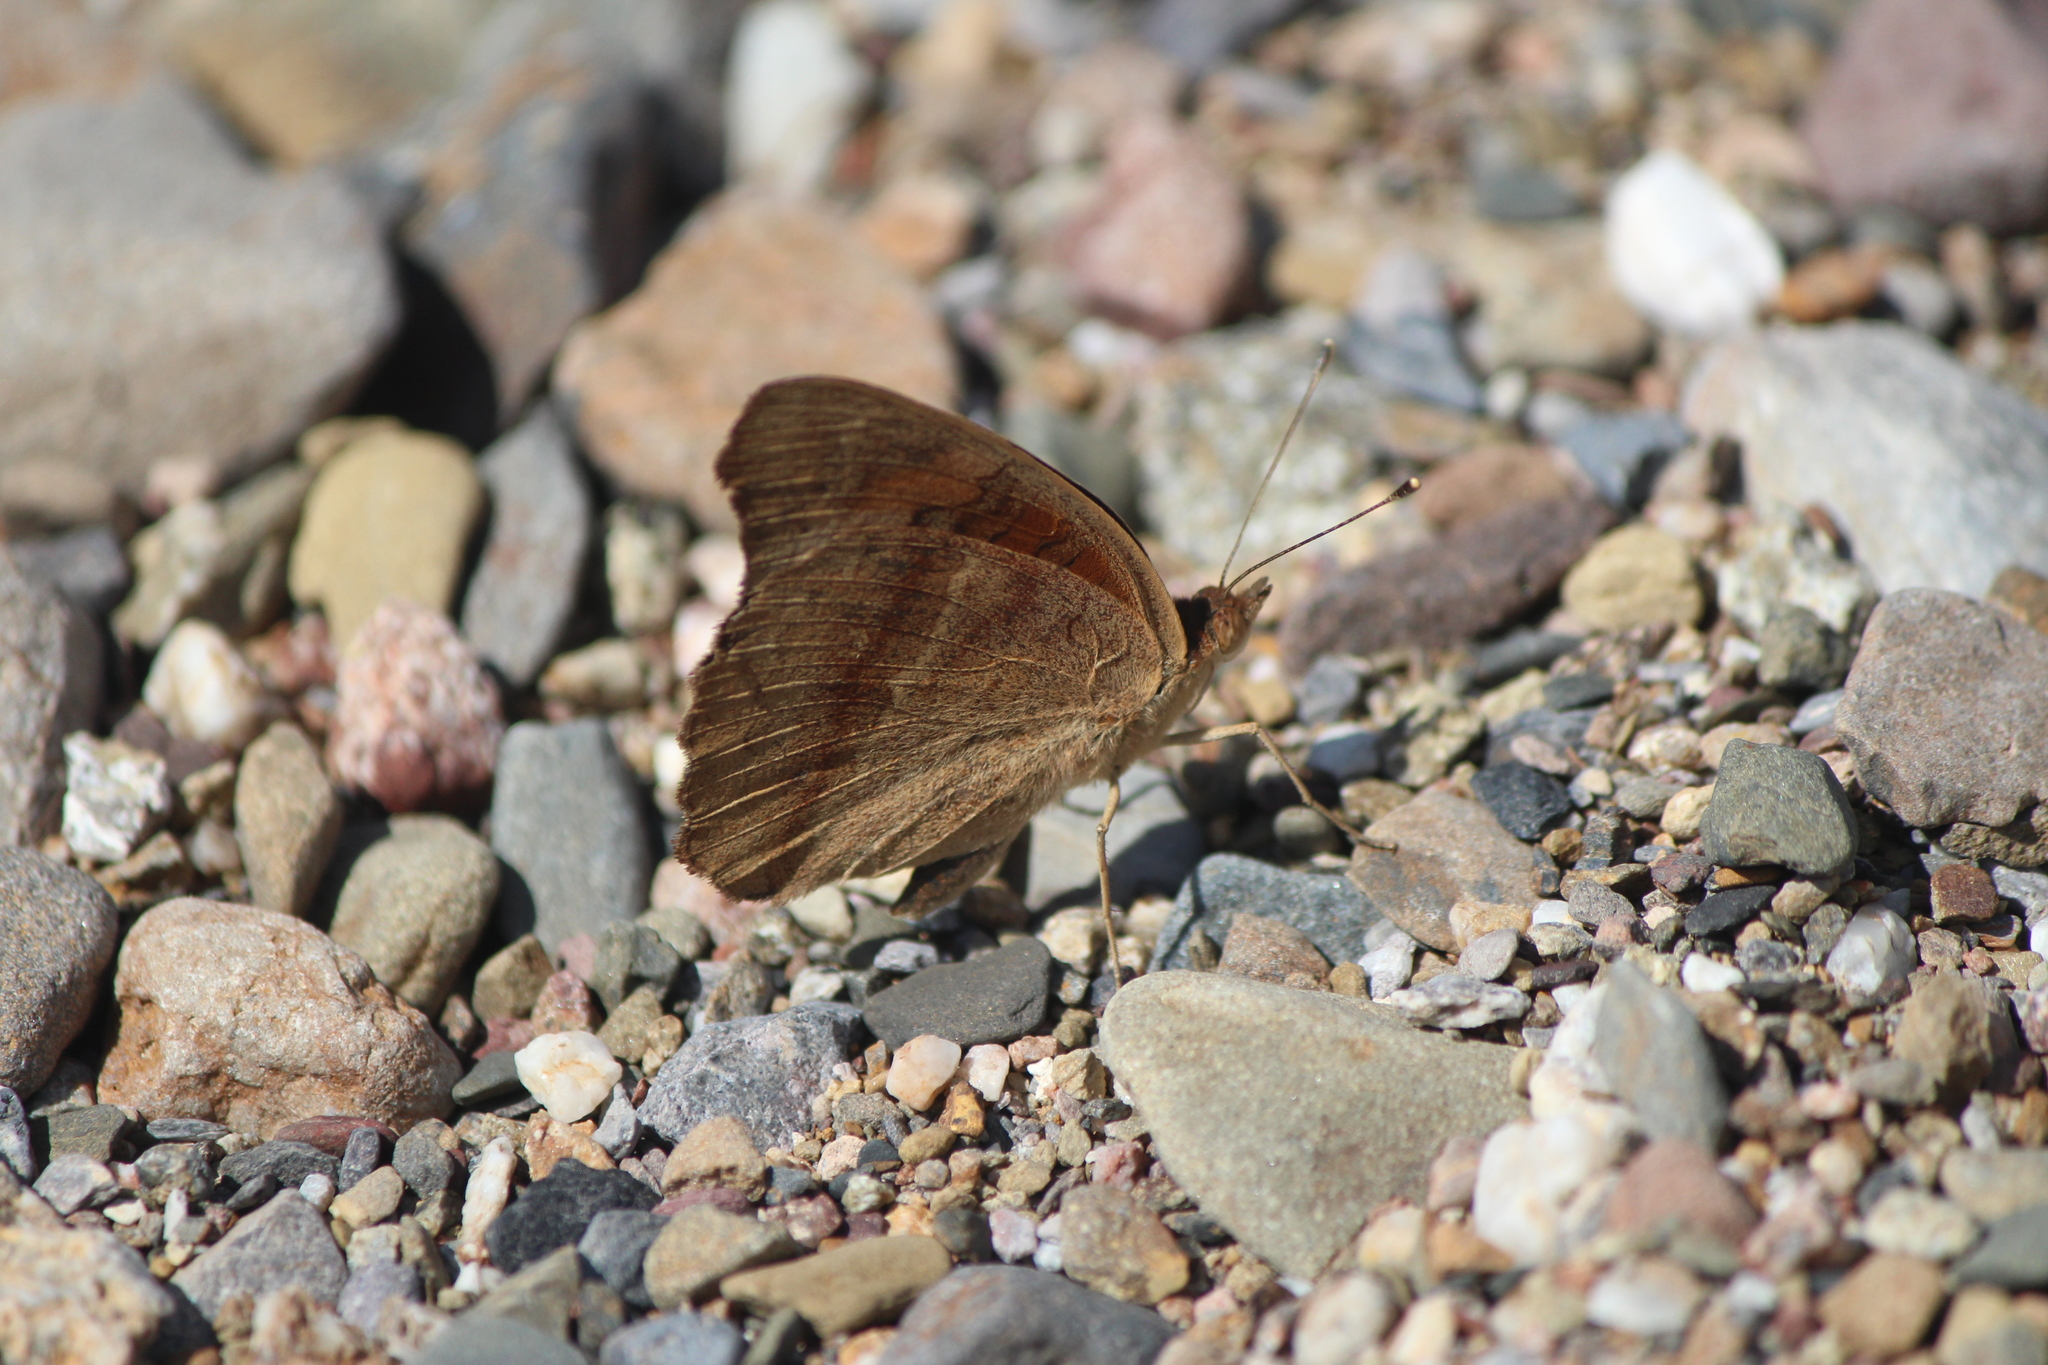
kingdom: Animalia
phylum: Arthropoda
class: Insecta
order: Lepidoptera
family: Nymphalidae
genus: Junonia
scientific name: Junonia coenia
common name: Common buckeye
